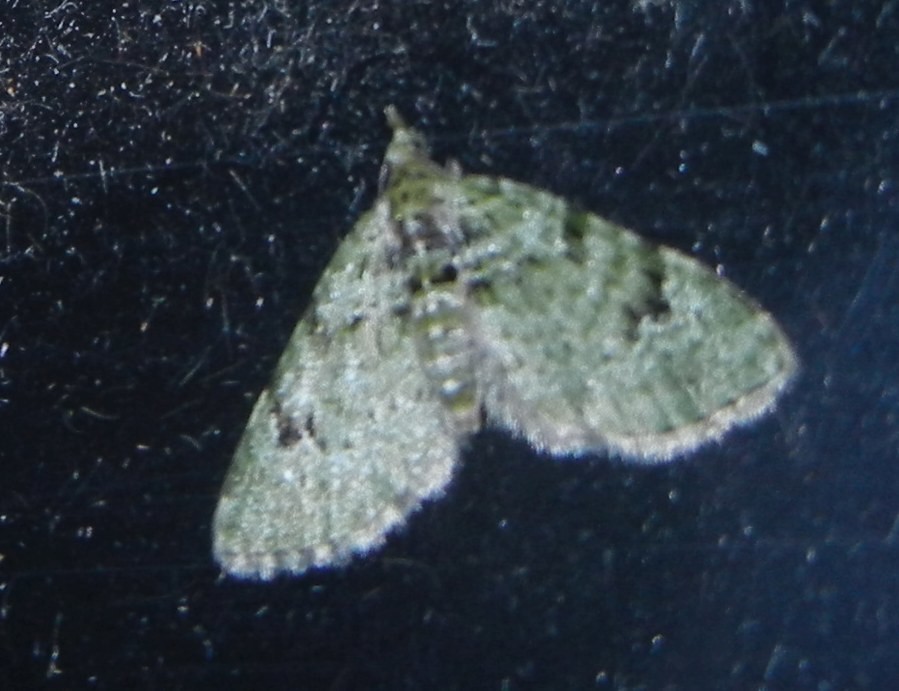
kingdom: Animalia
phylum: Arthropoda
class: Insecta
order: Lepidoptera
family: Geometridae
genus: Chloroclystis
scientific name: Chloroclystis v-ata
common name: V-pug
